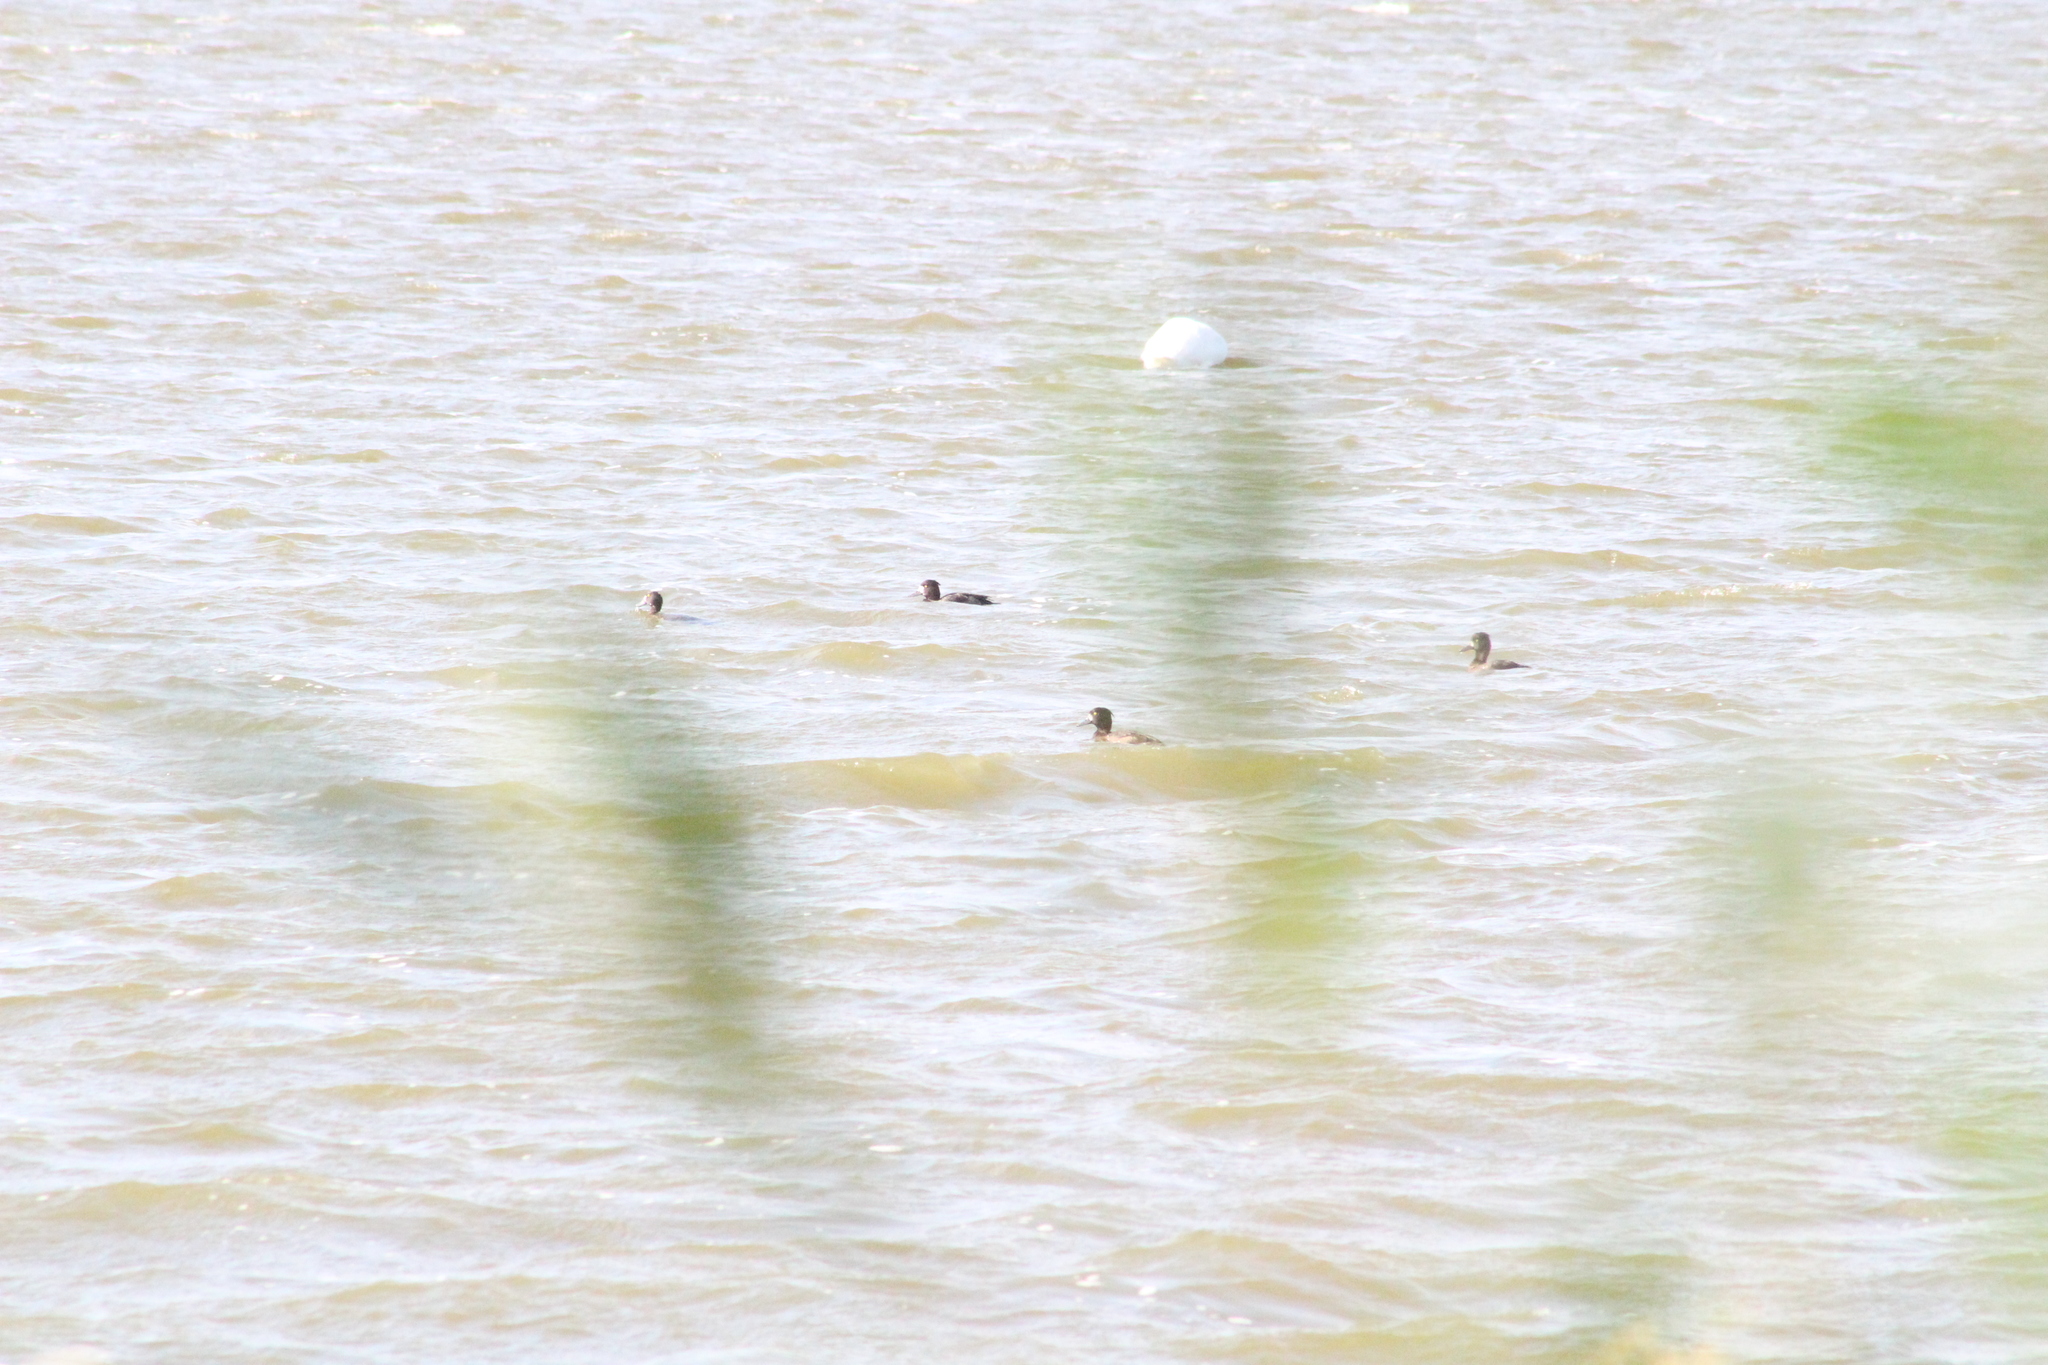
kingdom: Animalia
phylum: Chordata
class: Aves
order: Anseriformes
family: Anatidae
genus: Aythya
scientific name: Aythya fuligula
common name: Tufted duck
